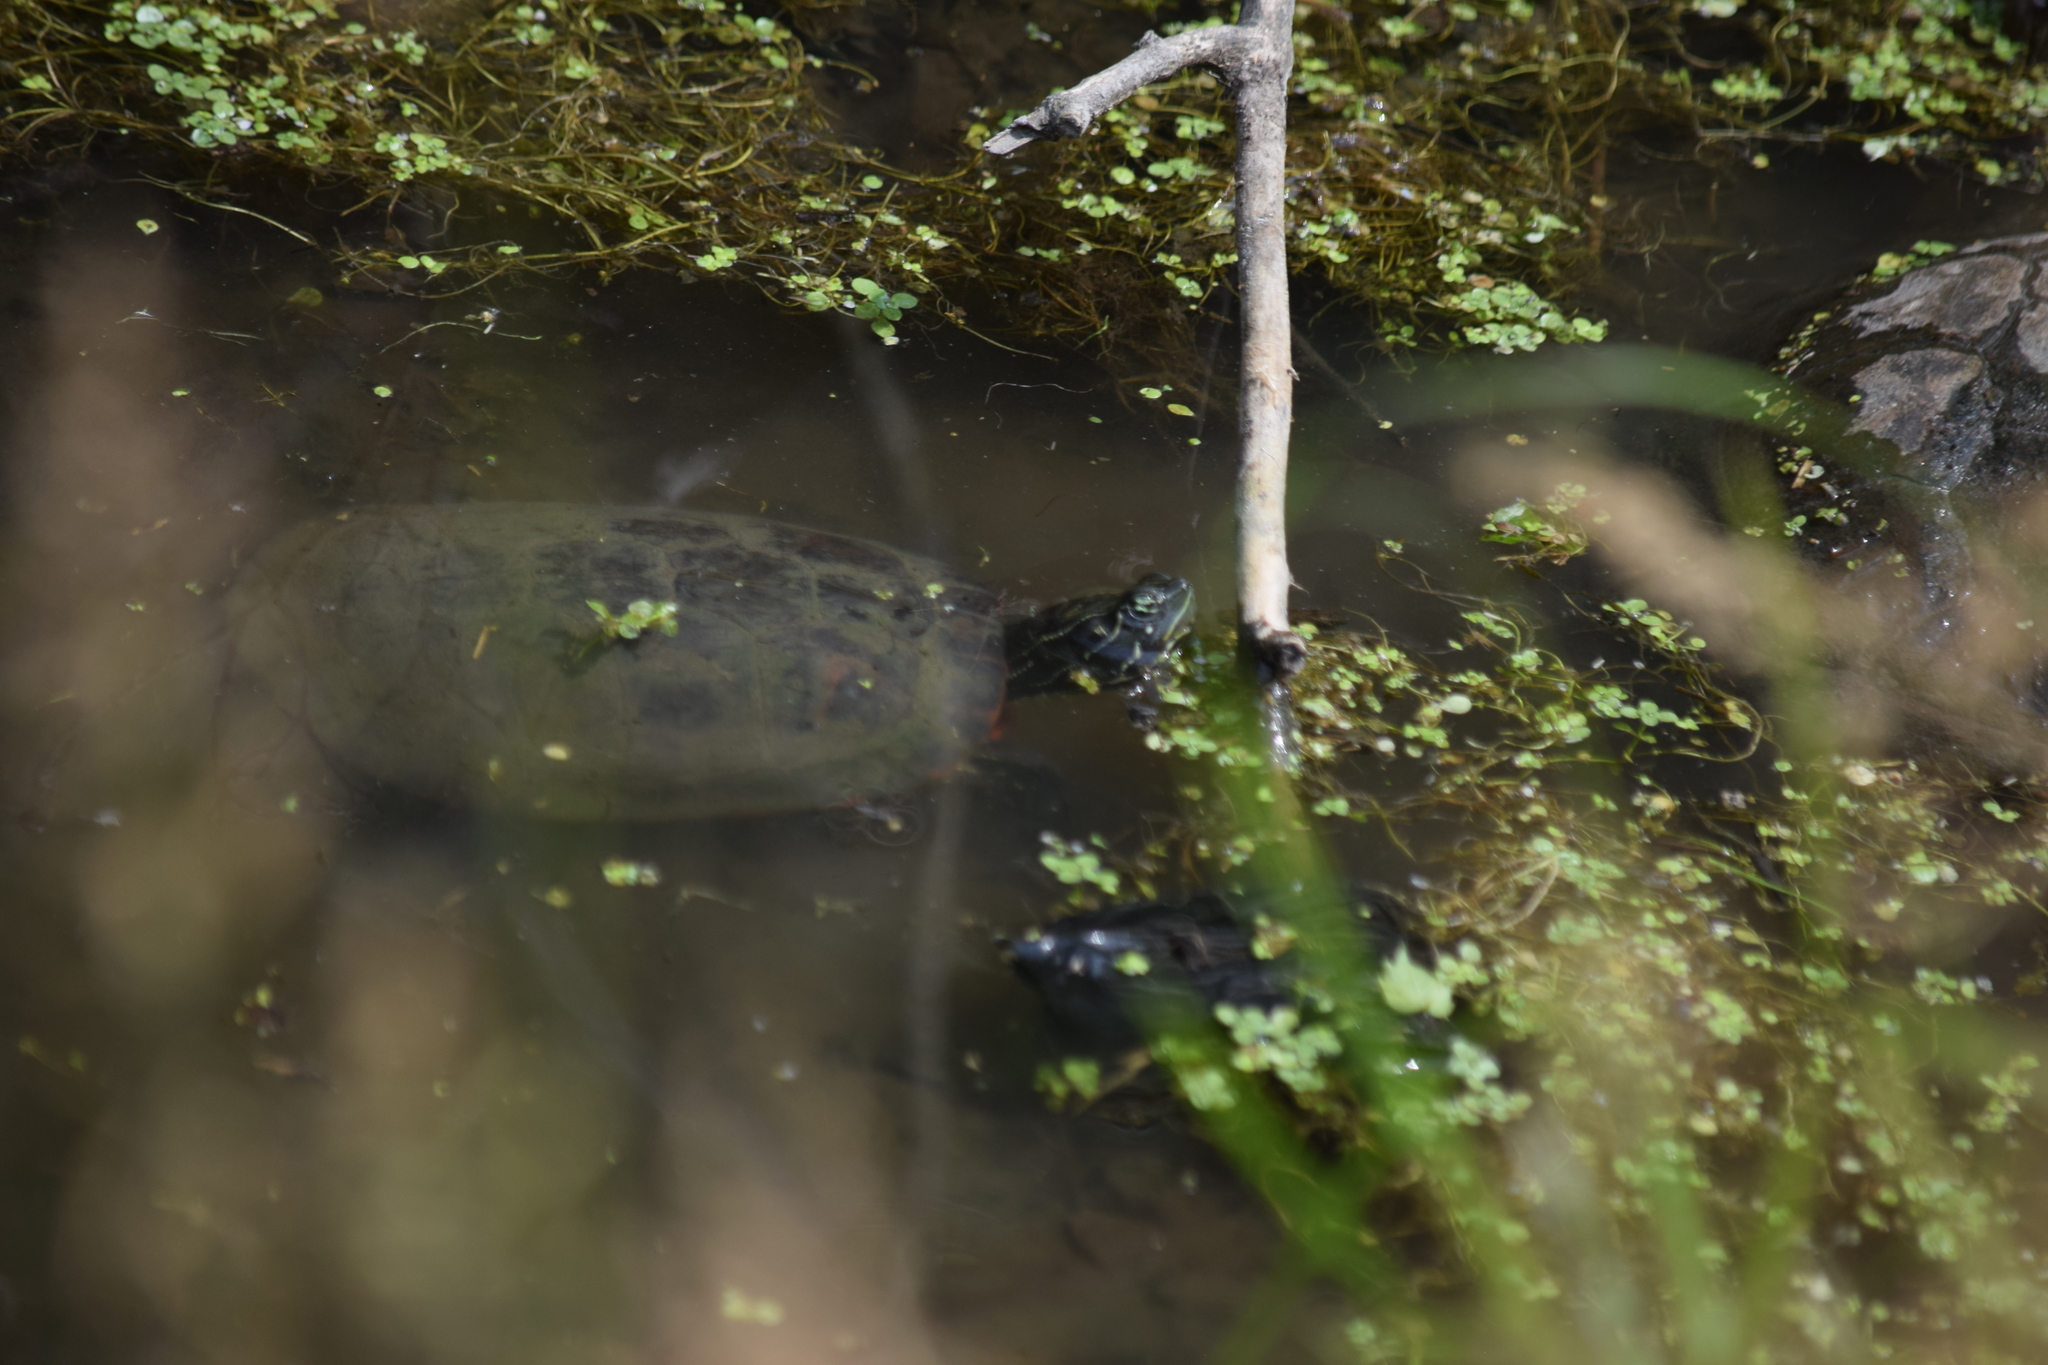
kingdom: Animalia
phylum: Chordata
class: Testudines
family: Emydidae
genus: Pseudemys
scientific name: Pseudemys rubriventris
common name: American red-bellied turtle
